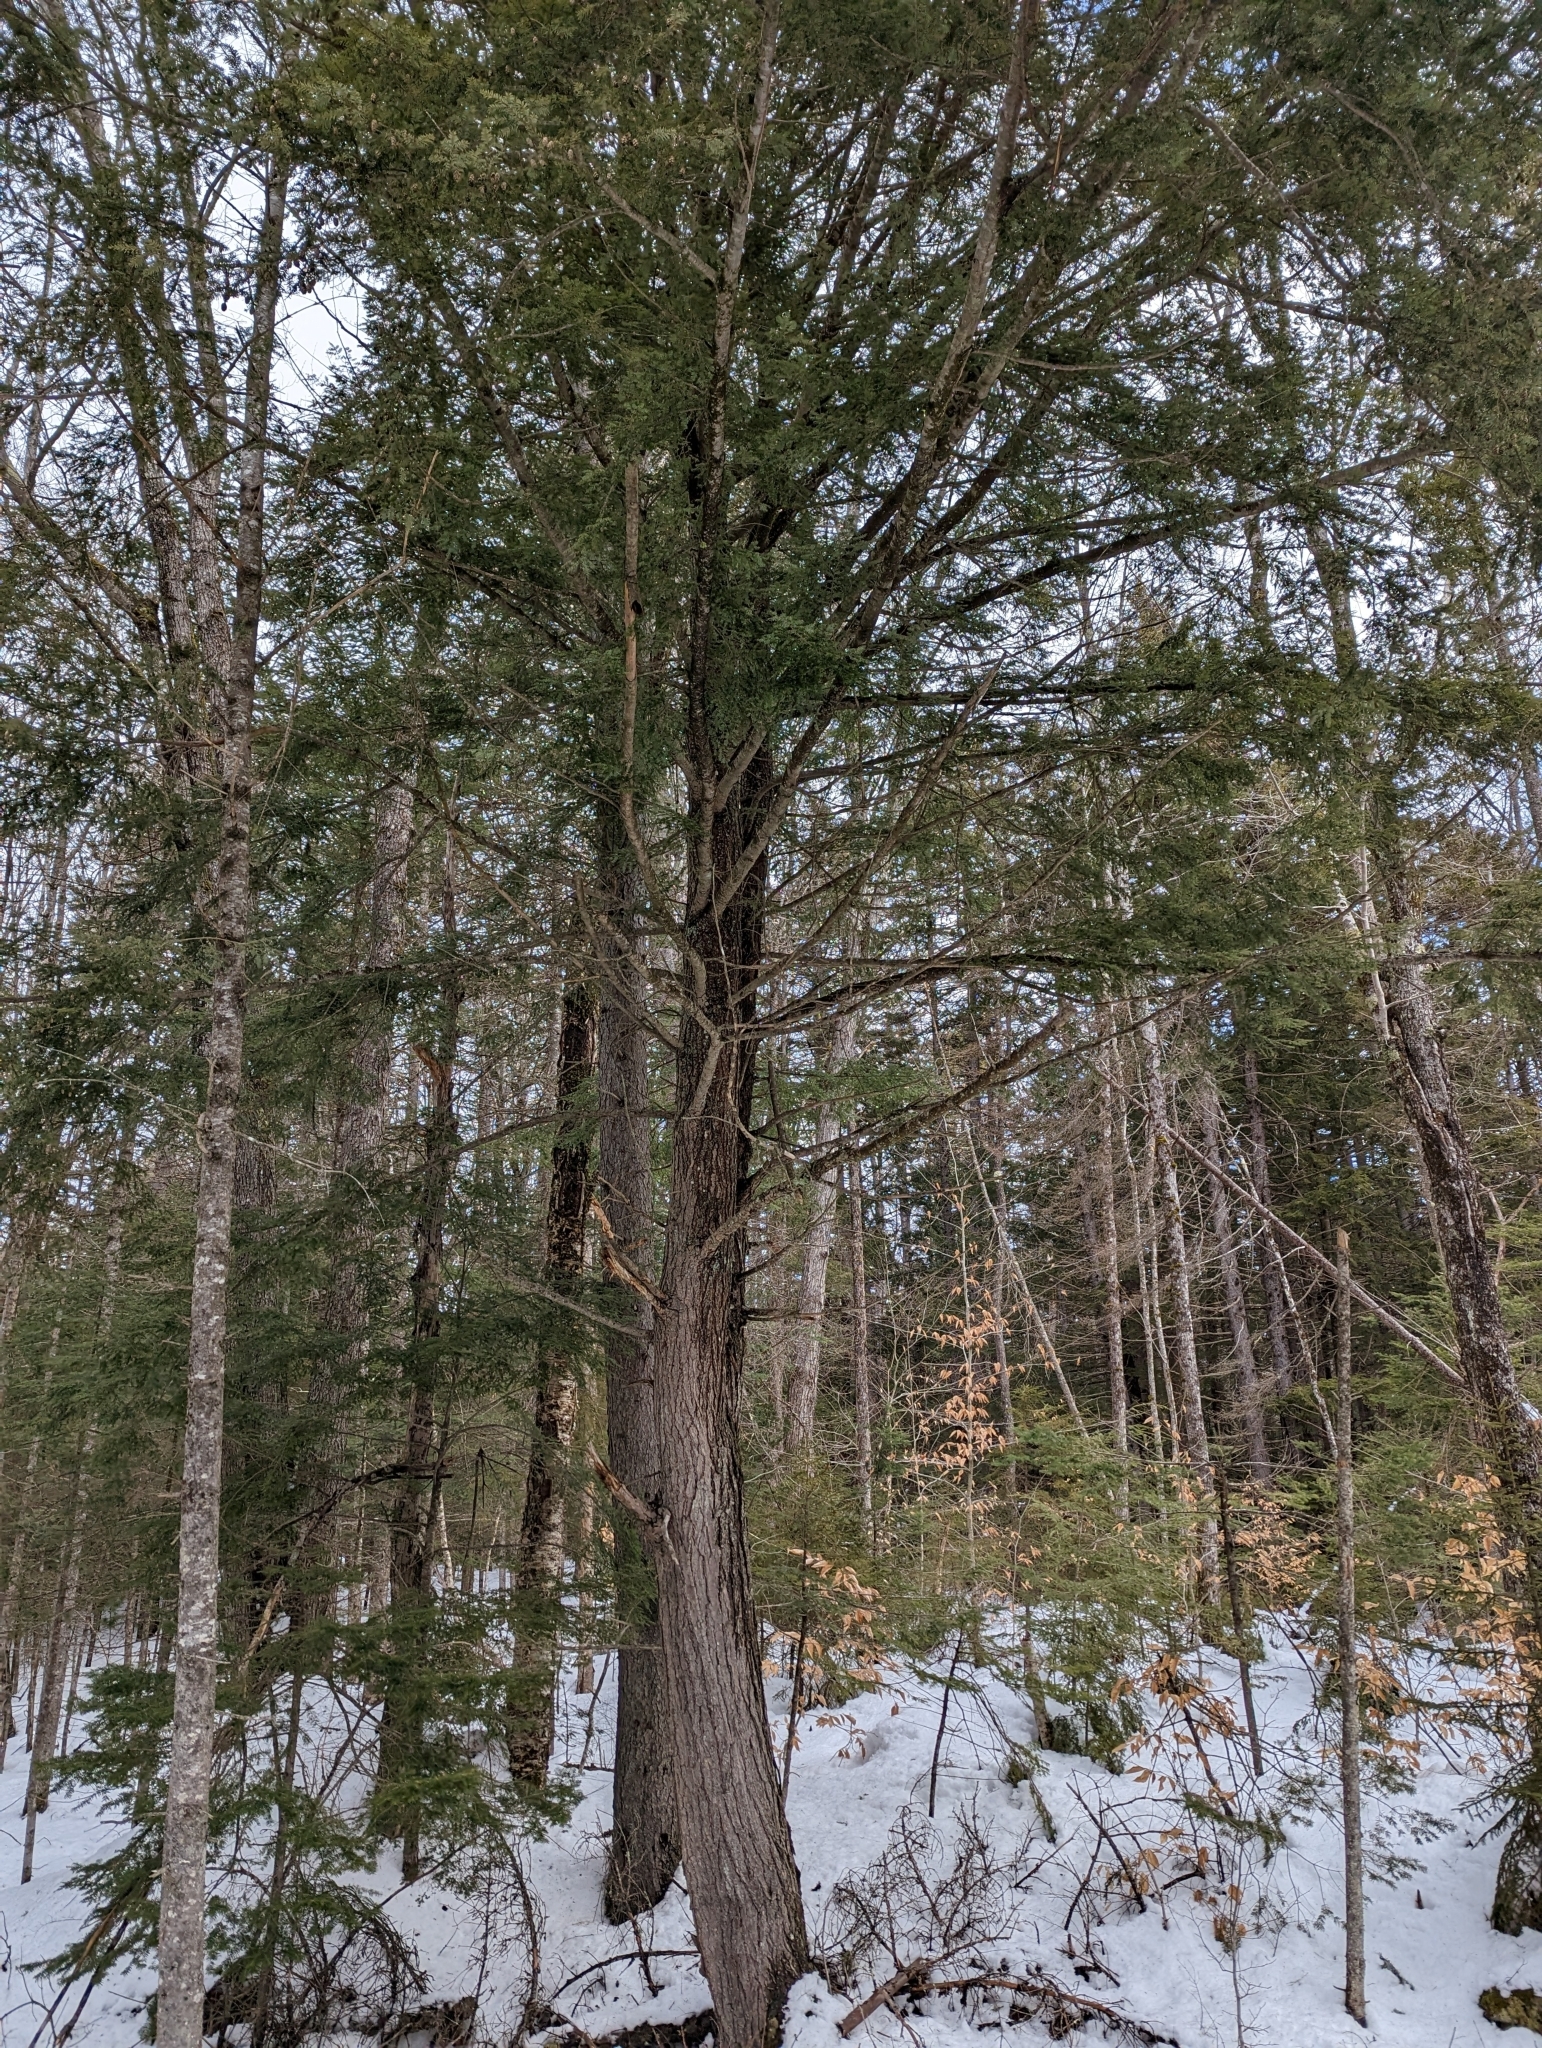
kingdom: Plantae
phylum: Tracheophyta
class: Pinopsida
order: Pinales
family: Pinaceae
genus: Tsuga
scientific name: Tsuga canadensis
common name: Eastern hemlock
